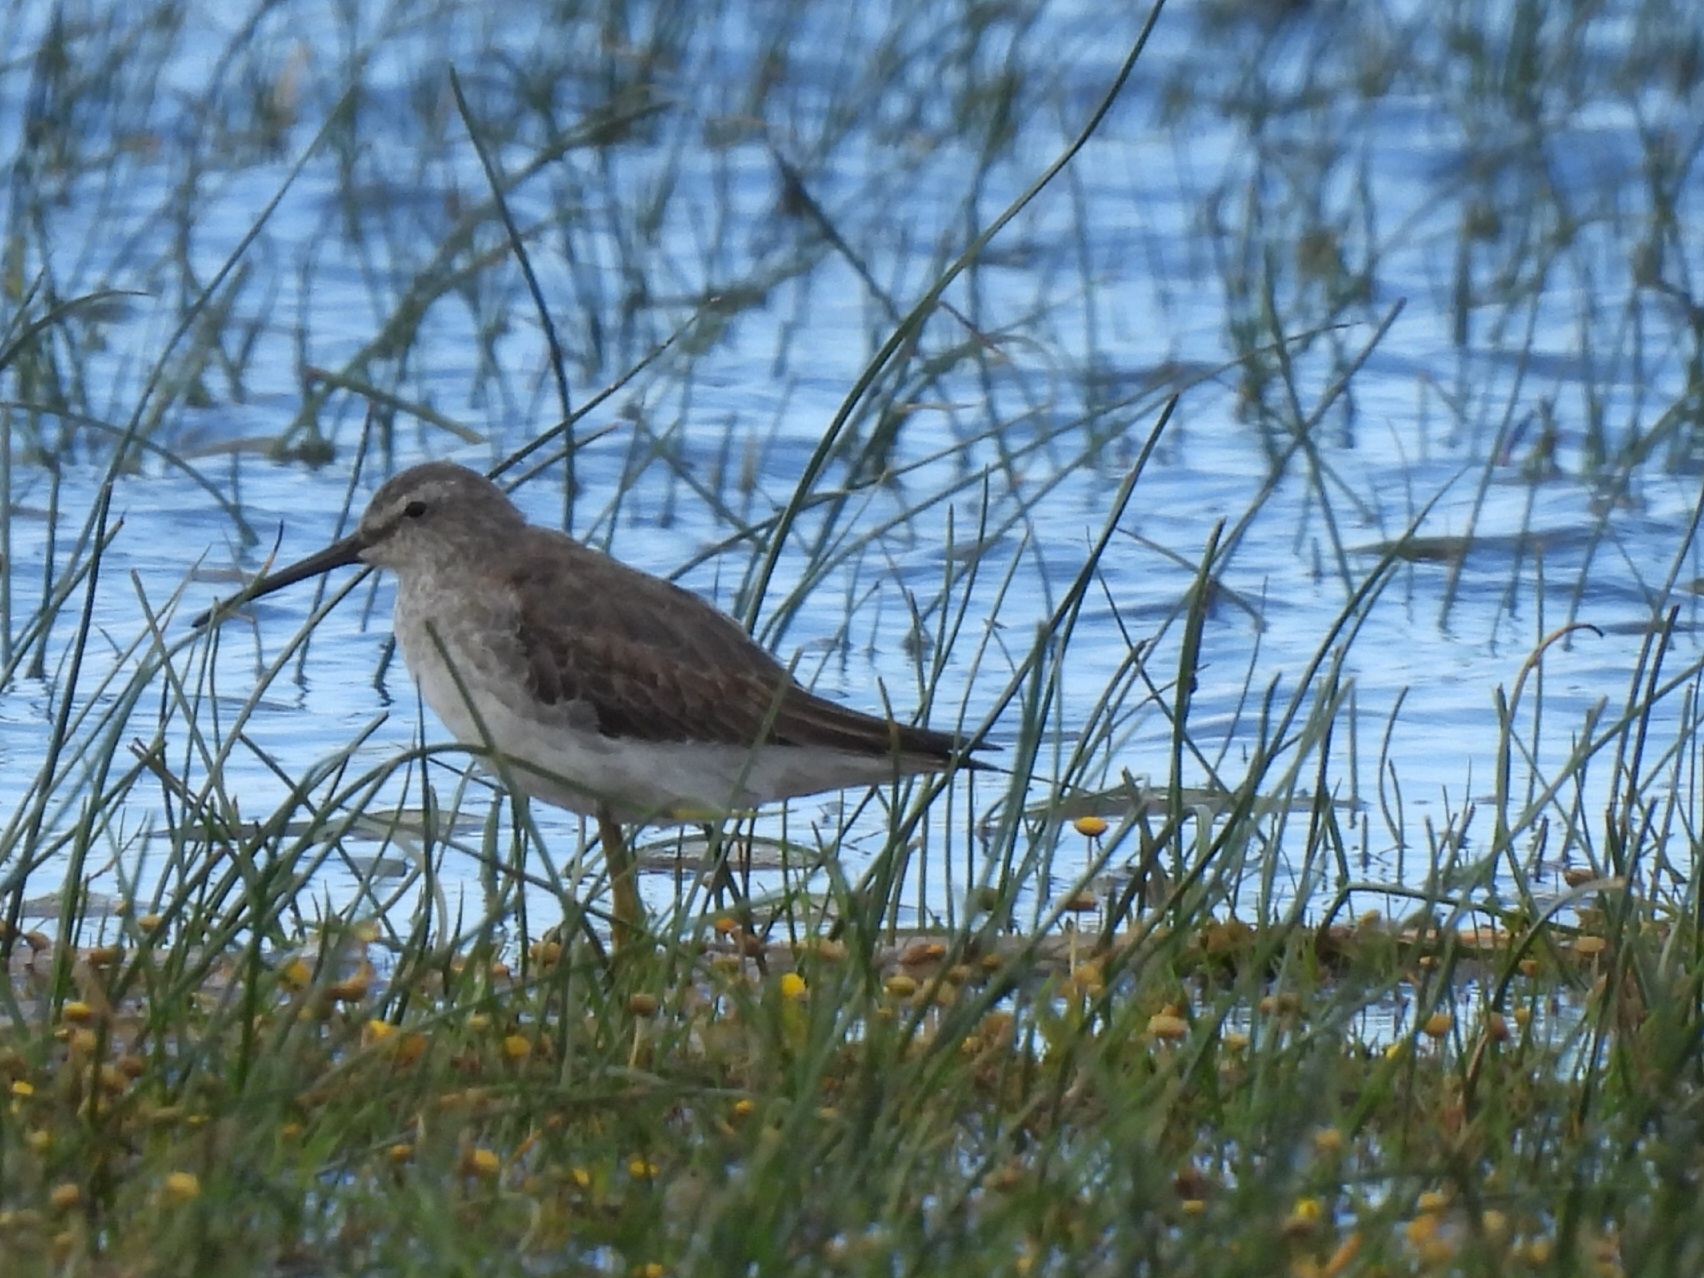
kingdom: Animalia
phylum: Chordata
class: Aves
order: Charadriiformes
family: Scolopacidae
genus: Calidris
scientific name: Calidris himantopus
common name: Stilt sandpiper
